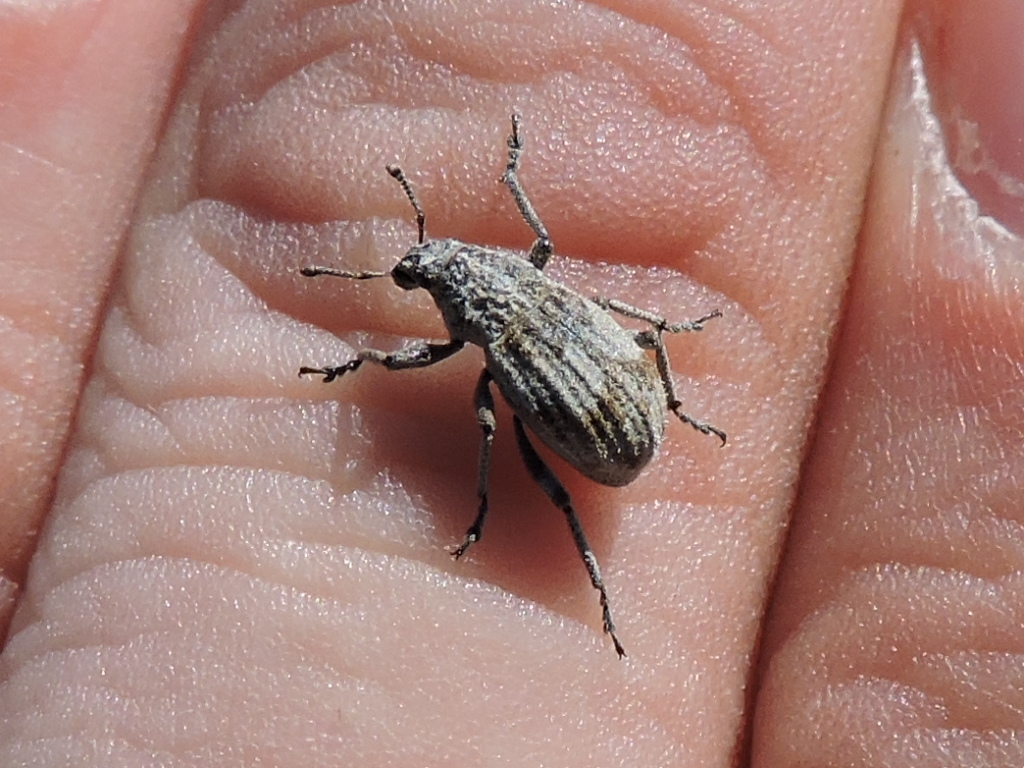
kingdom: Animalia
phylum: Arthropoda
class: Insecta
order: Coleoptera
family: Curculionidae
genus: Glaphyrometopus
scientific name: Glaphyrometopus ornithodorus
